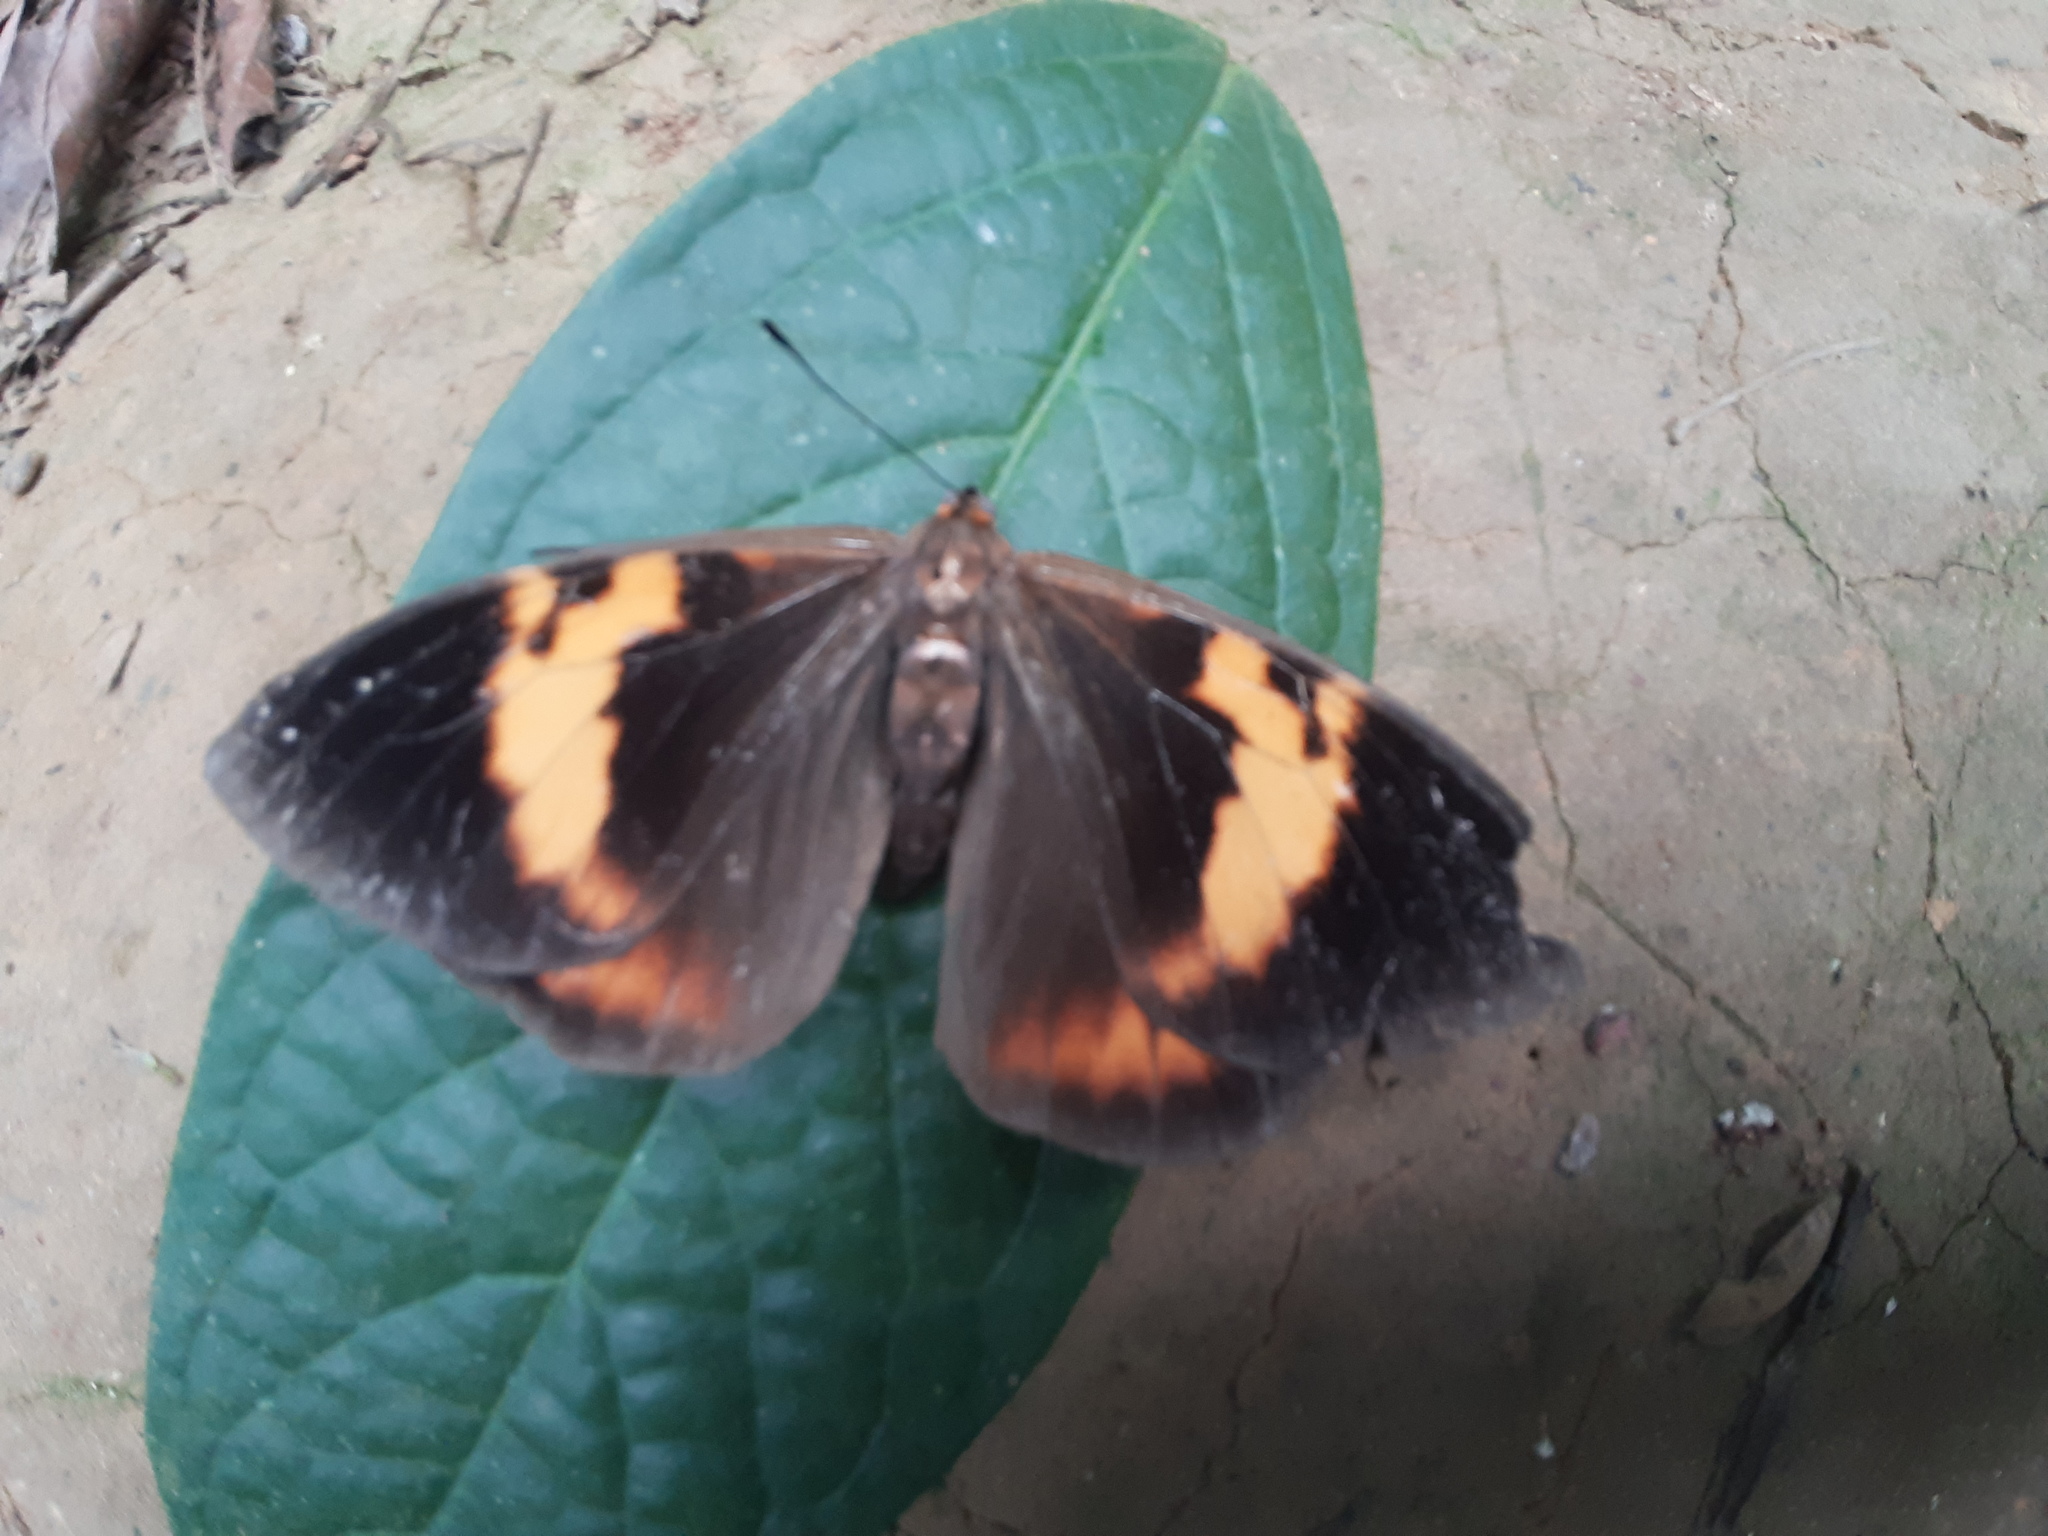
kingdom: Animalia
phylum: Arthropoda
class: Insecta
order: Lepidoptera
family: Nymphalidae
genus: Brassolis
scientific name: Brassolis sophorae
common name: Coconut caterpillar
